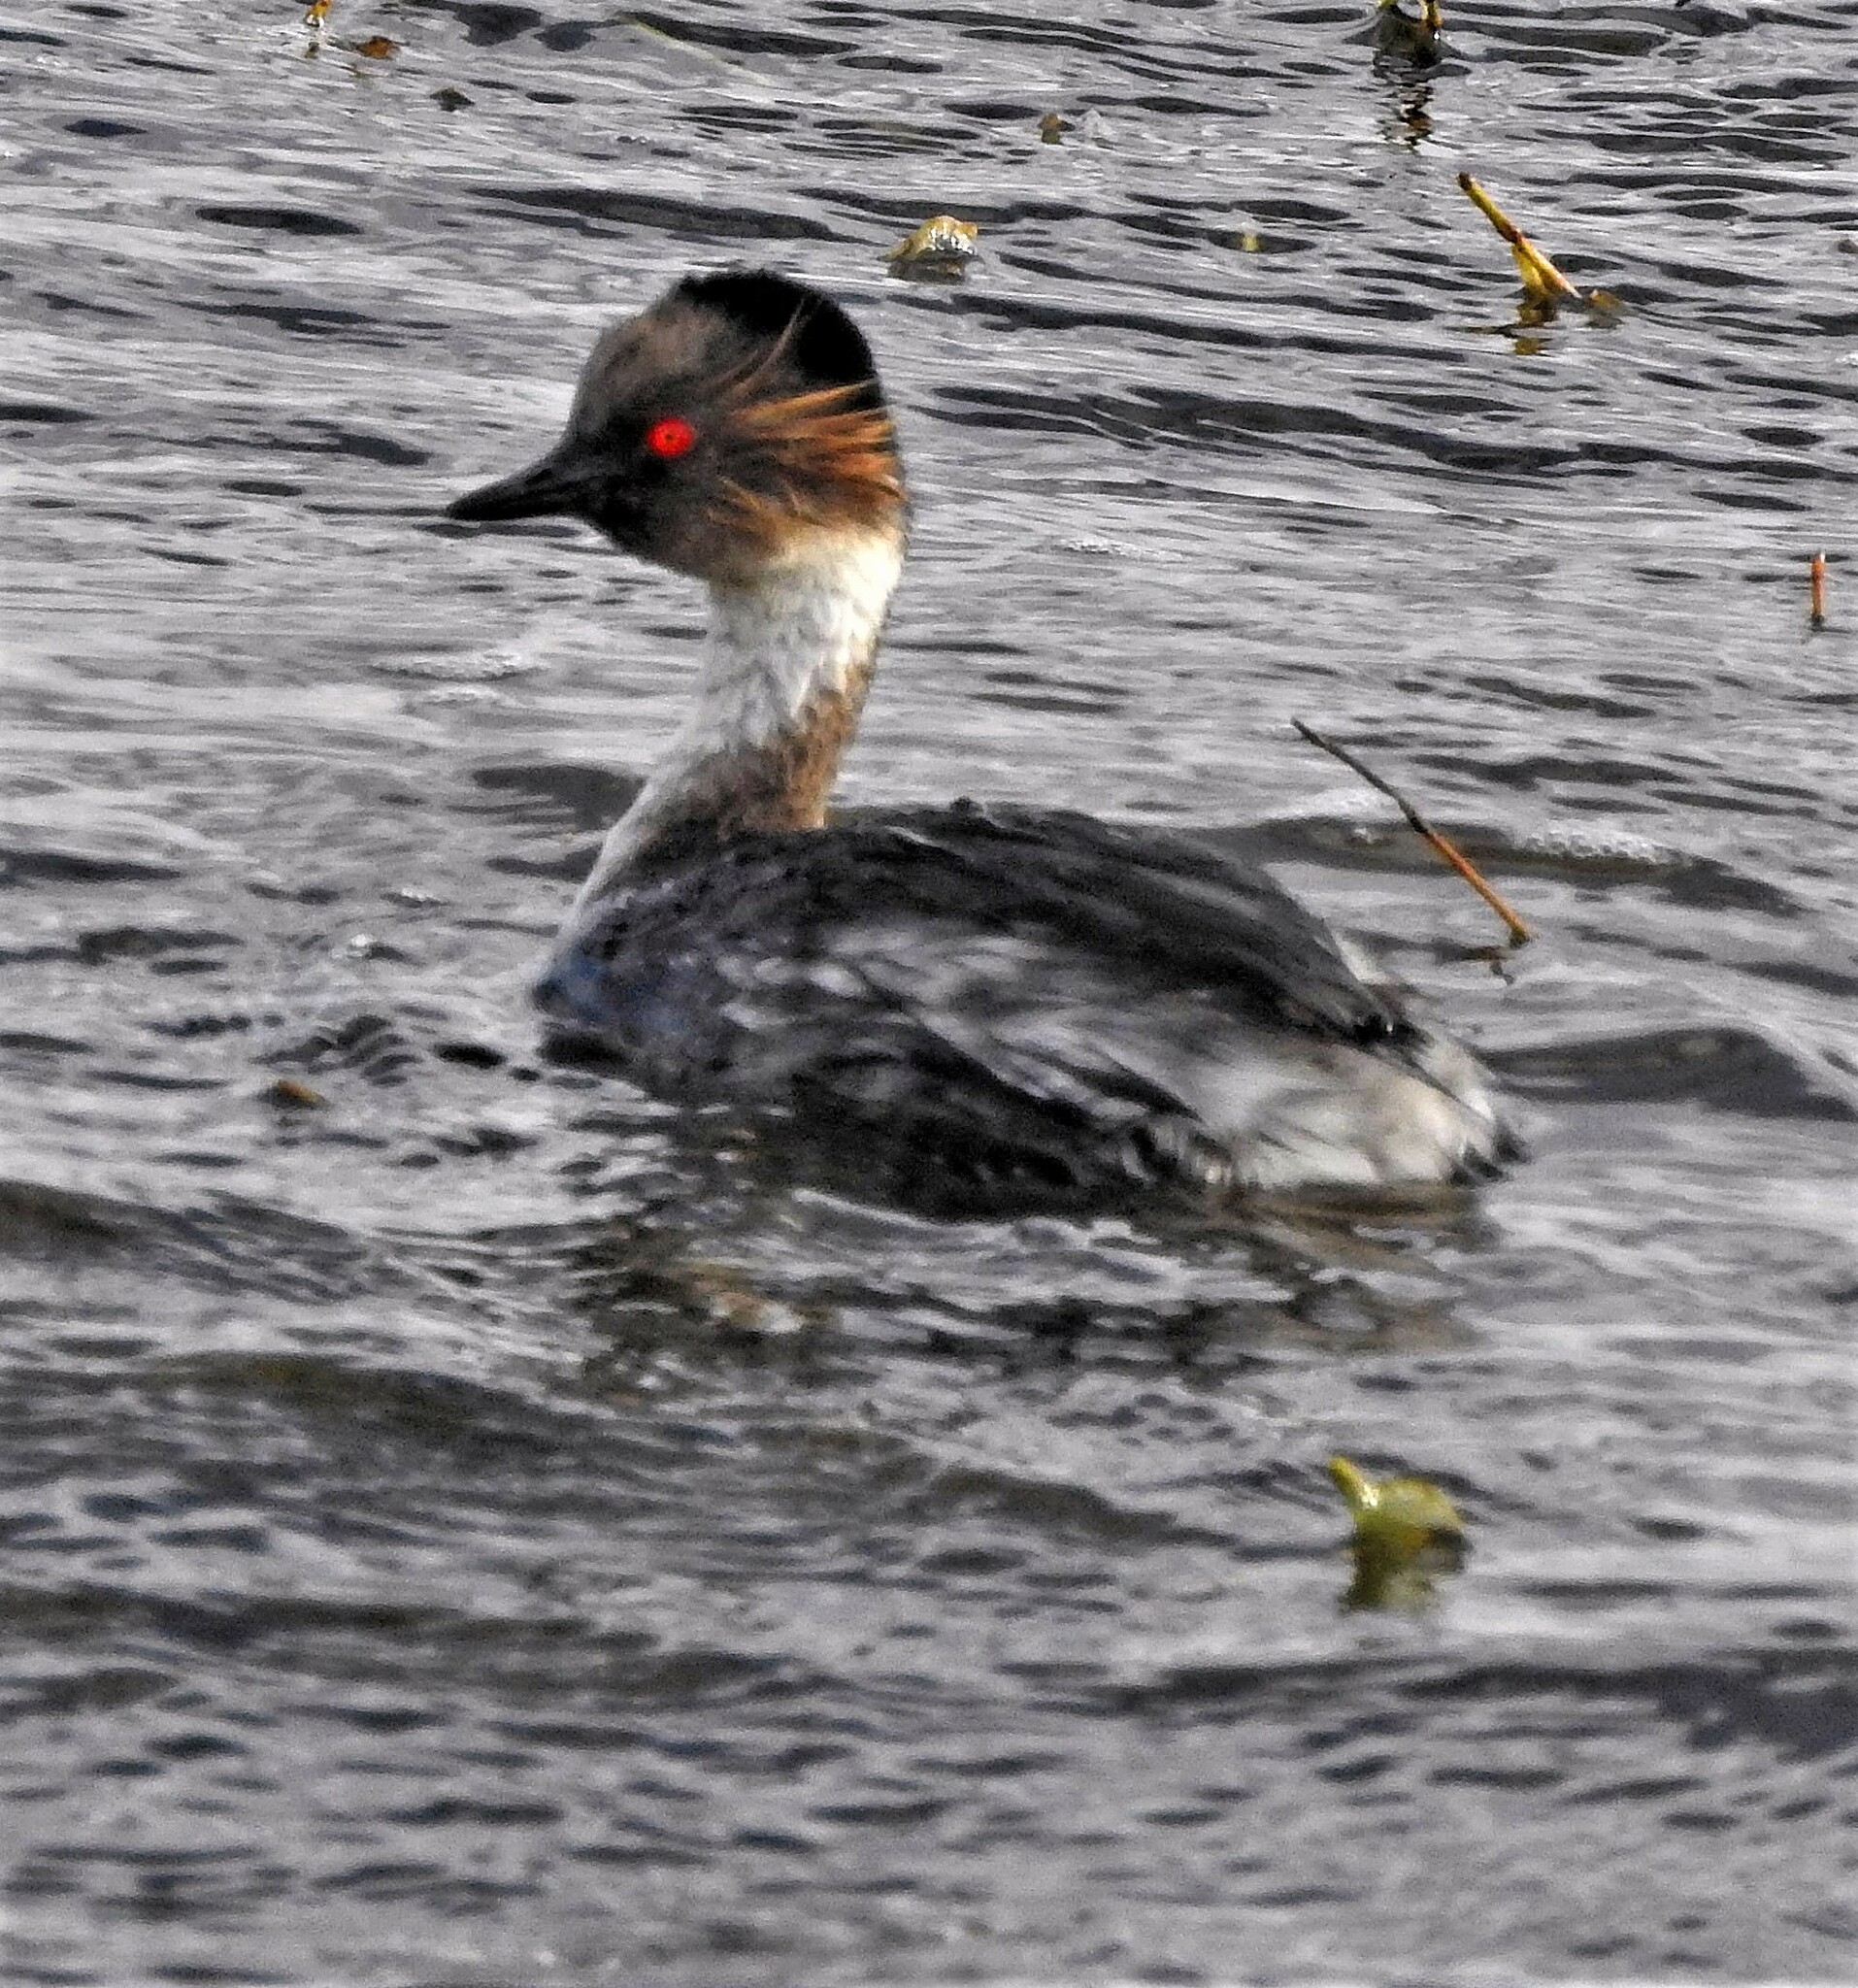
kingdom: Animalia
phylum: Chordata
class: Aves
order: Podicipediformes
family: Podicipedidae
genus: Podiceps
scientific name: Podiceps occipitalis
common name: Silvery grebe
